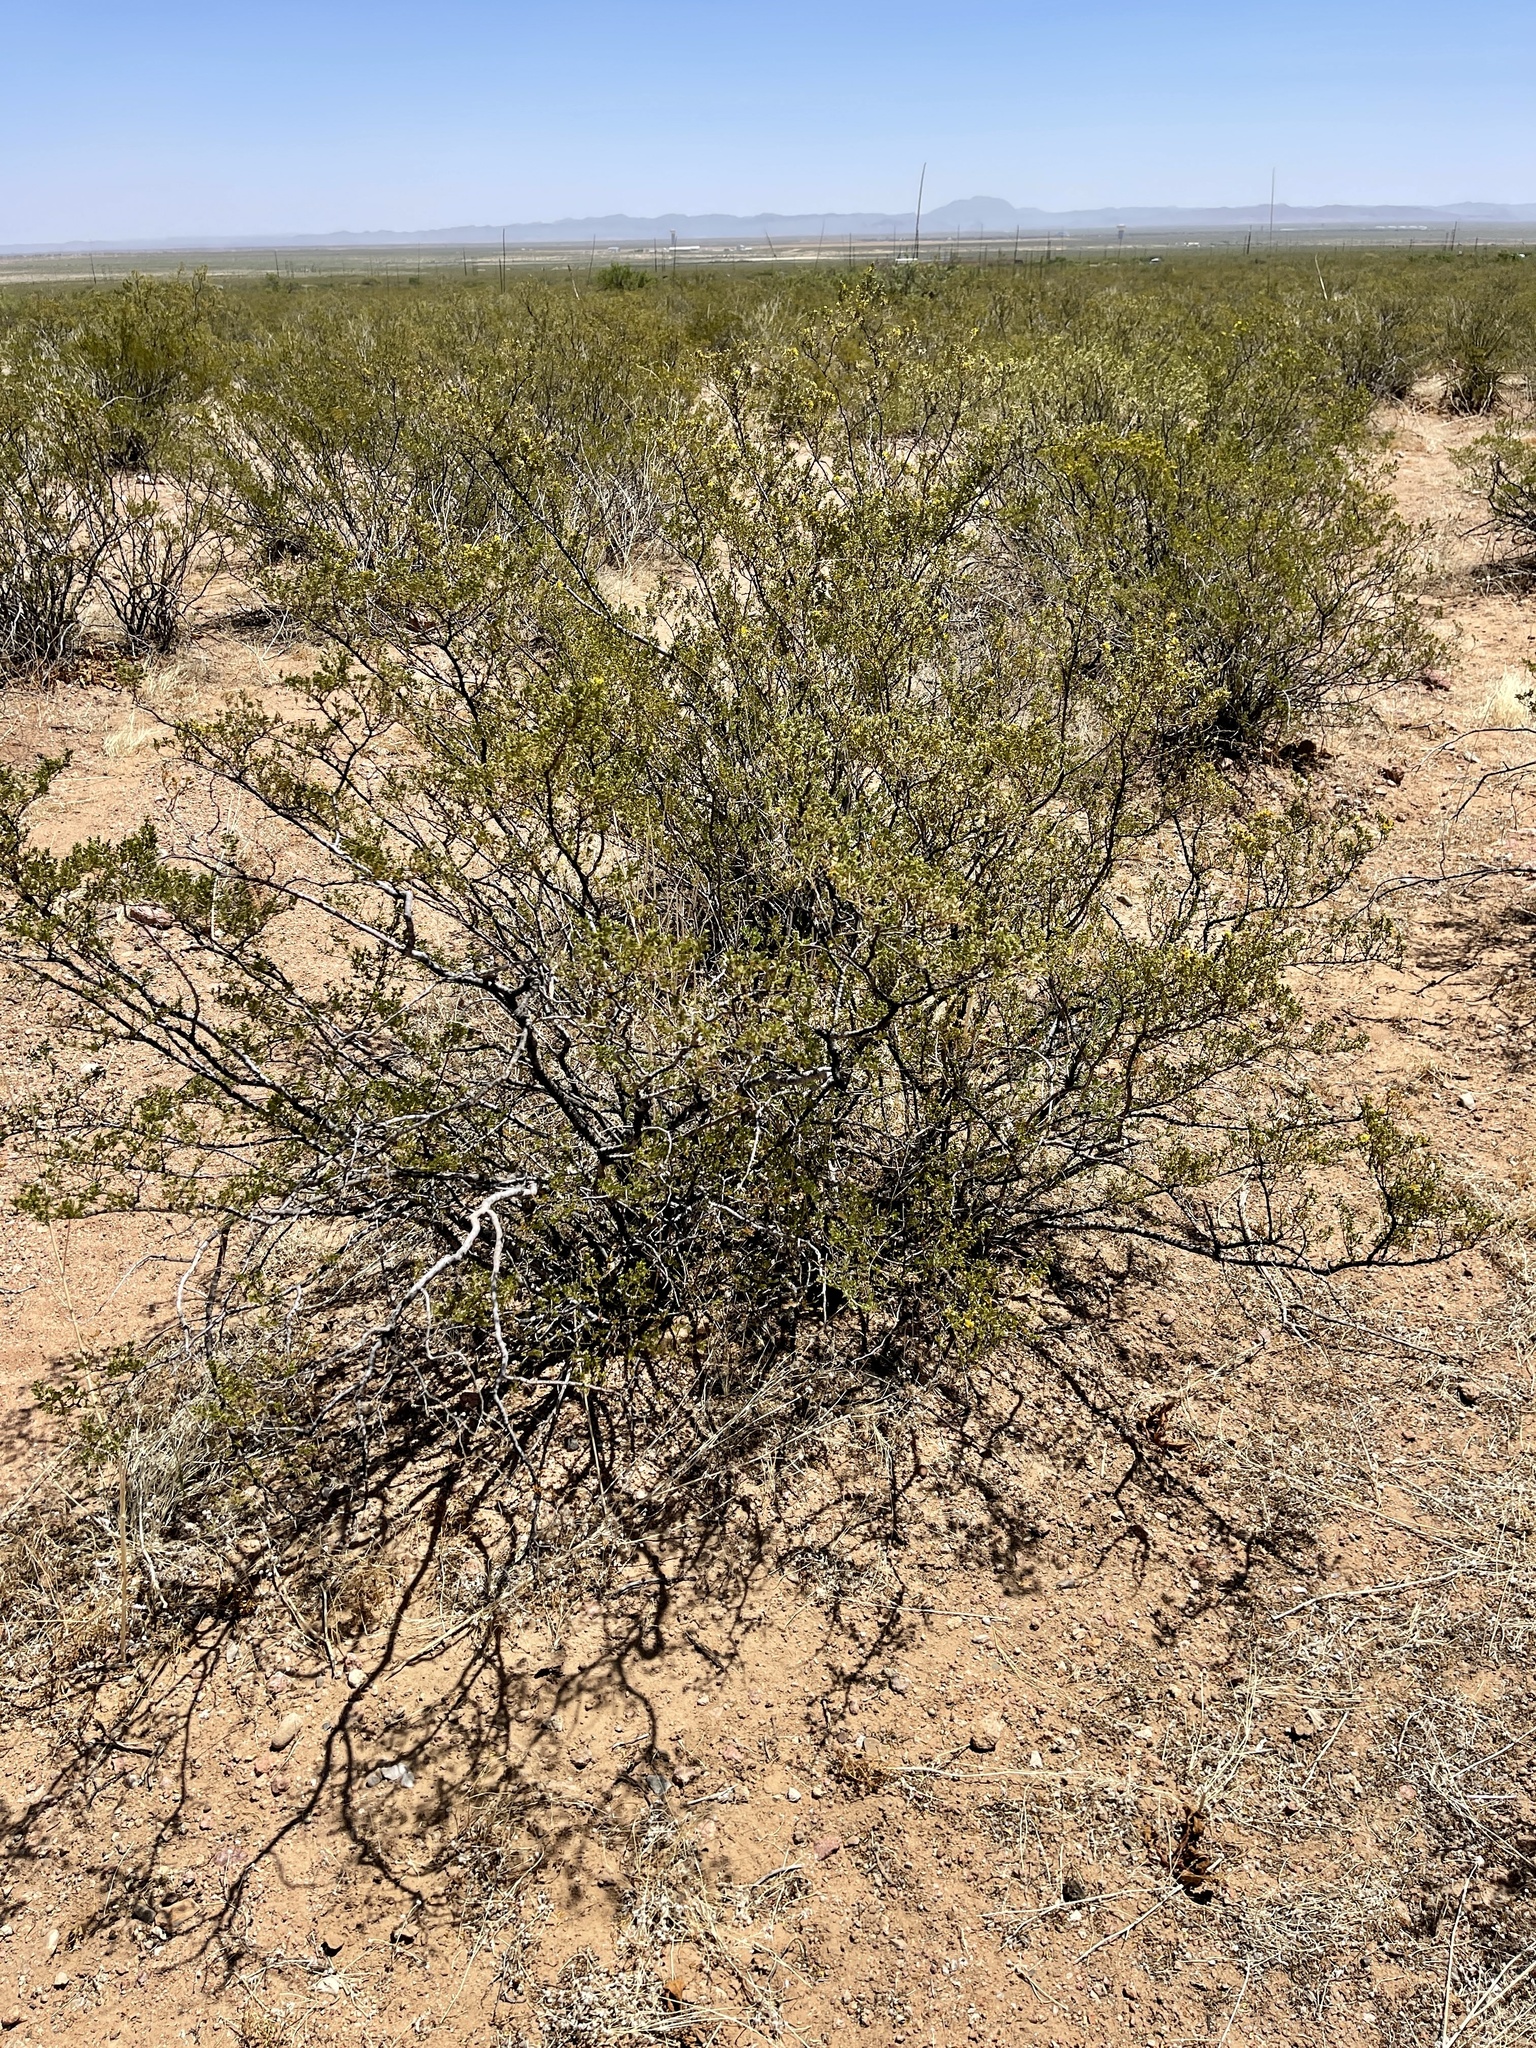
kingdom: Plantae
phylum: Tracheophyta
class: Magnoliopsida
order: Zygophyllales
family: Zygophyllaceae
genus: Larrea
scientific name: Larrea tridentata
